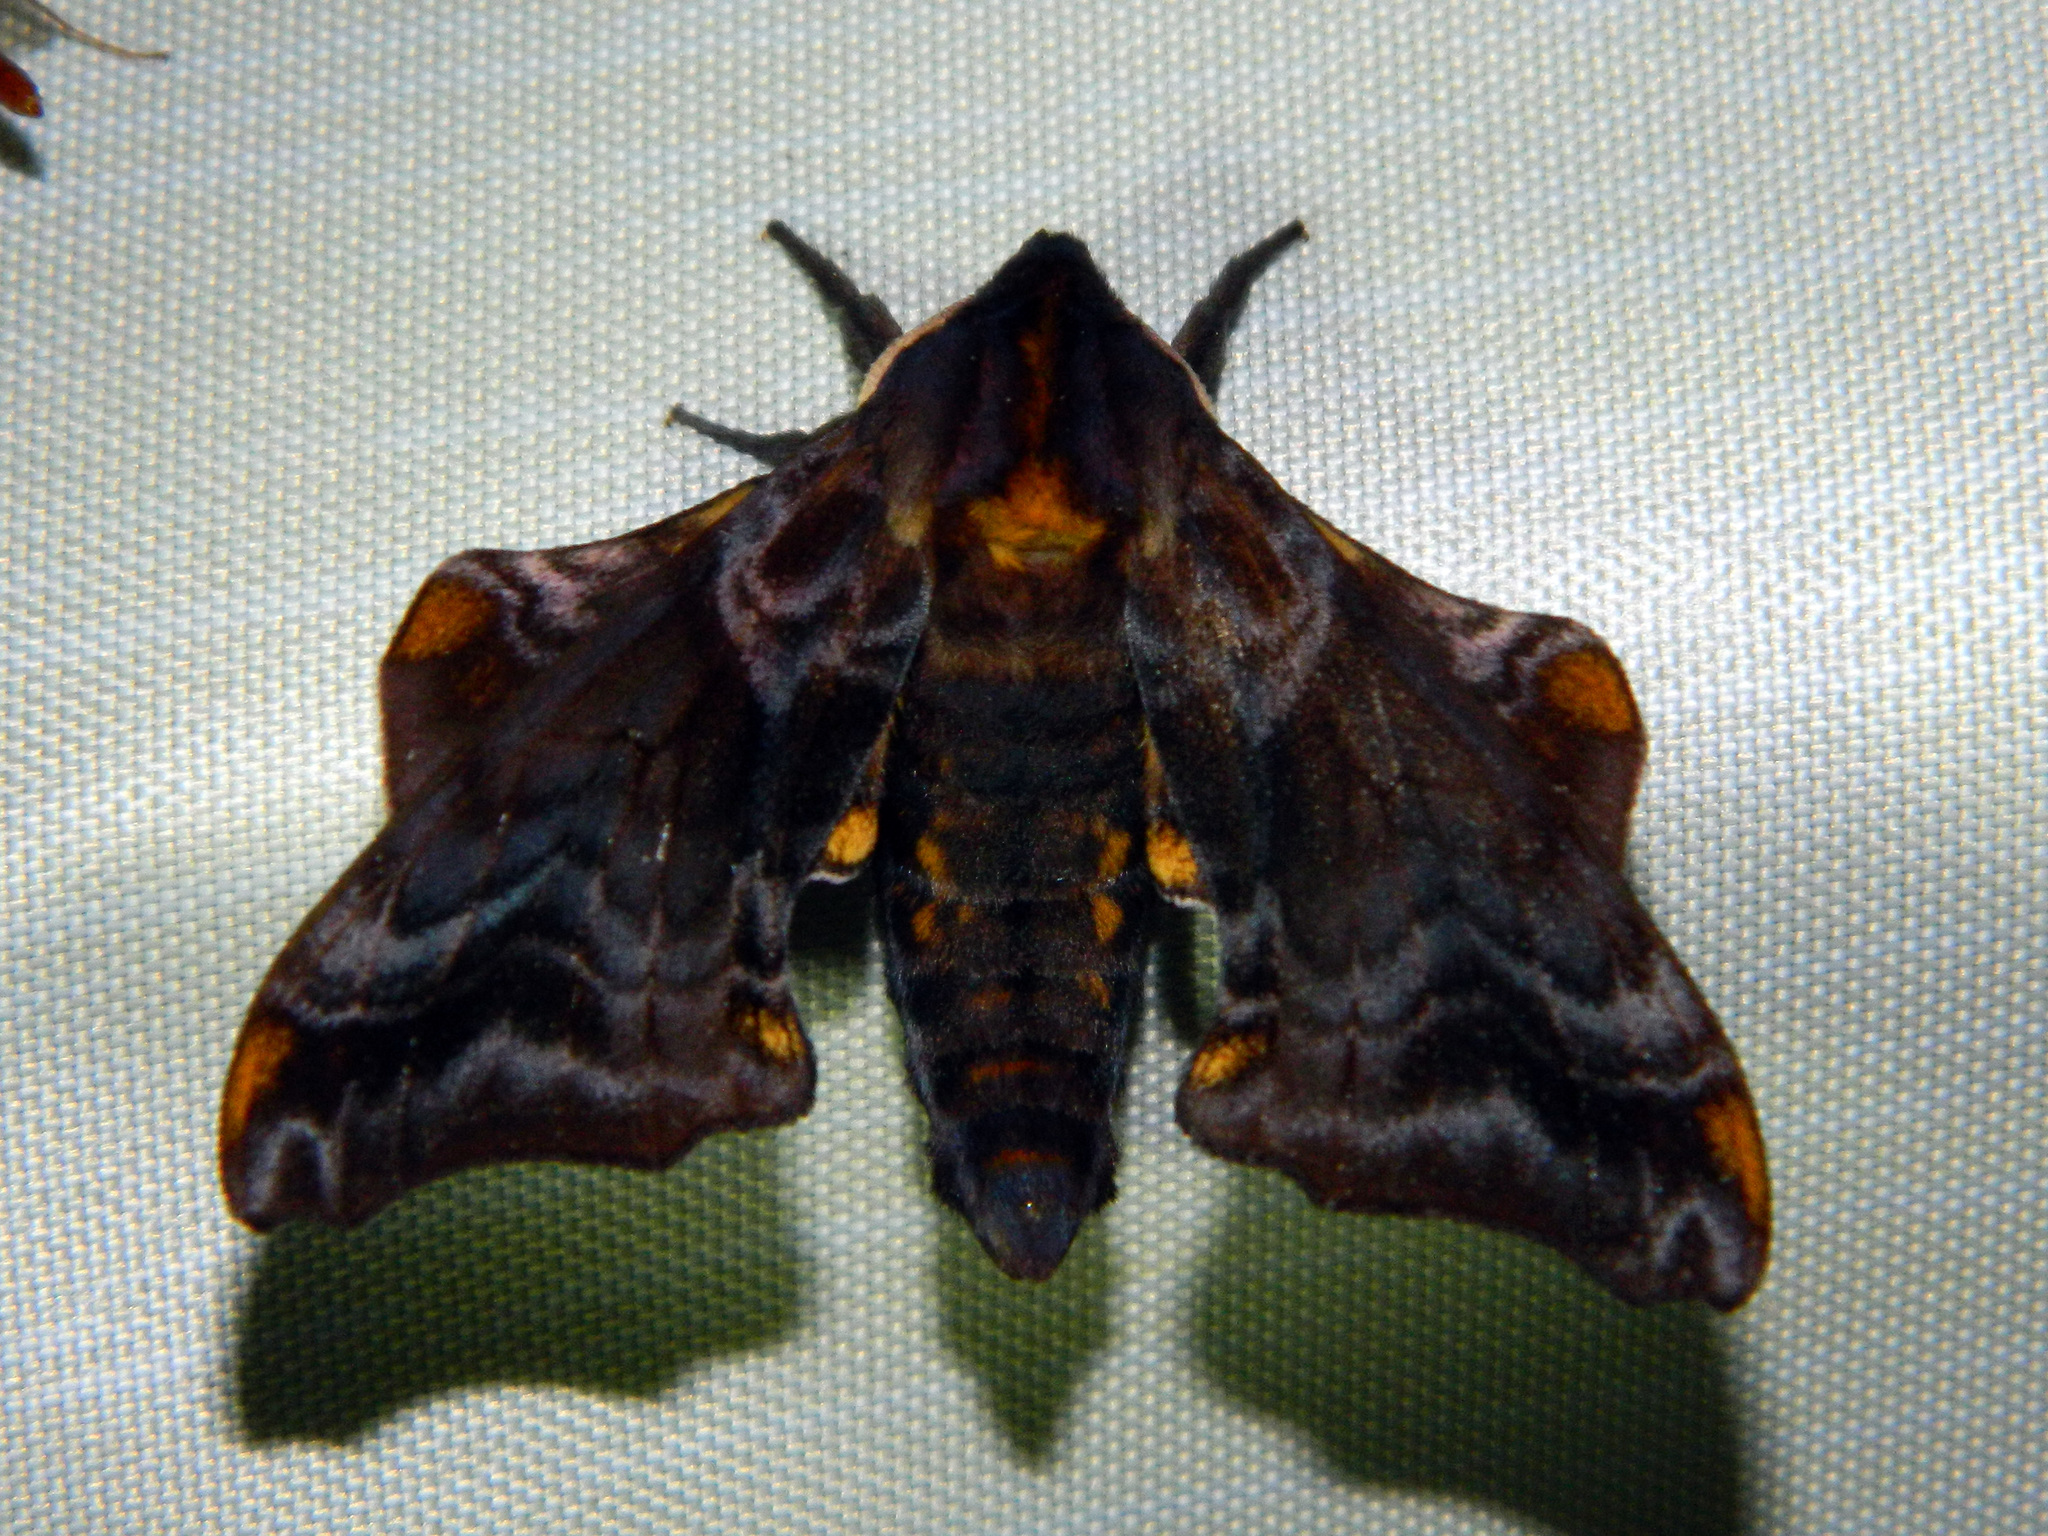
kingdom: Animalia
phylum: Arthropoda
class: Insecta
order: Lepidoptera
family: Sphingidae
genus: Paonias
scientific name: Paonias myops
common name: Small-eyed sphinx
